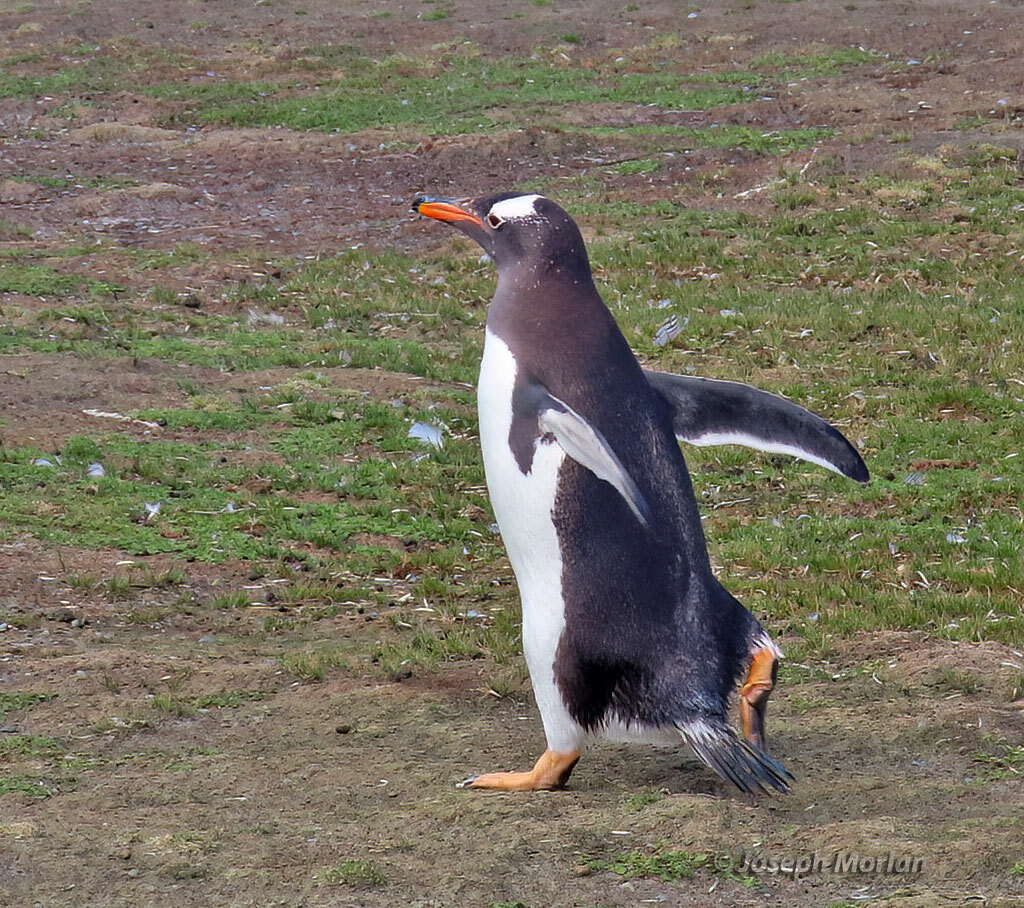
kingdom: Animalia
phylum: Chordata
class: Aves
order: Sphenisciformes
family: Spheniscidae
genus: Pygoscelis
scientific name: Pygoscelis papua
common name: Gentoo penguin
